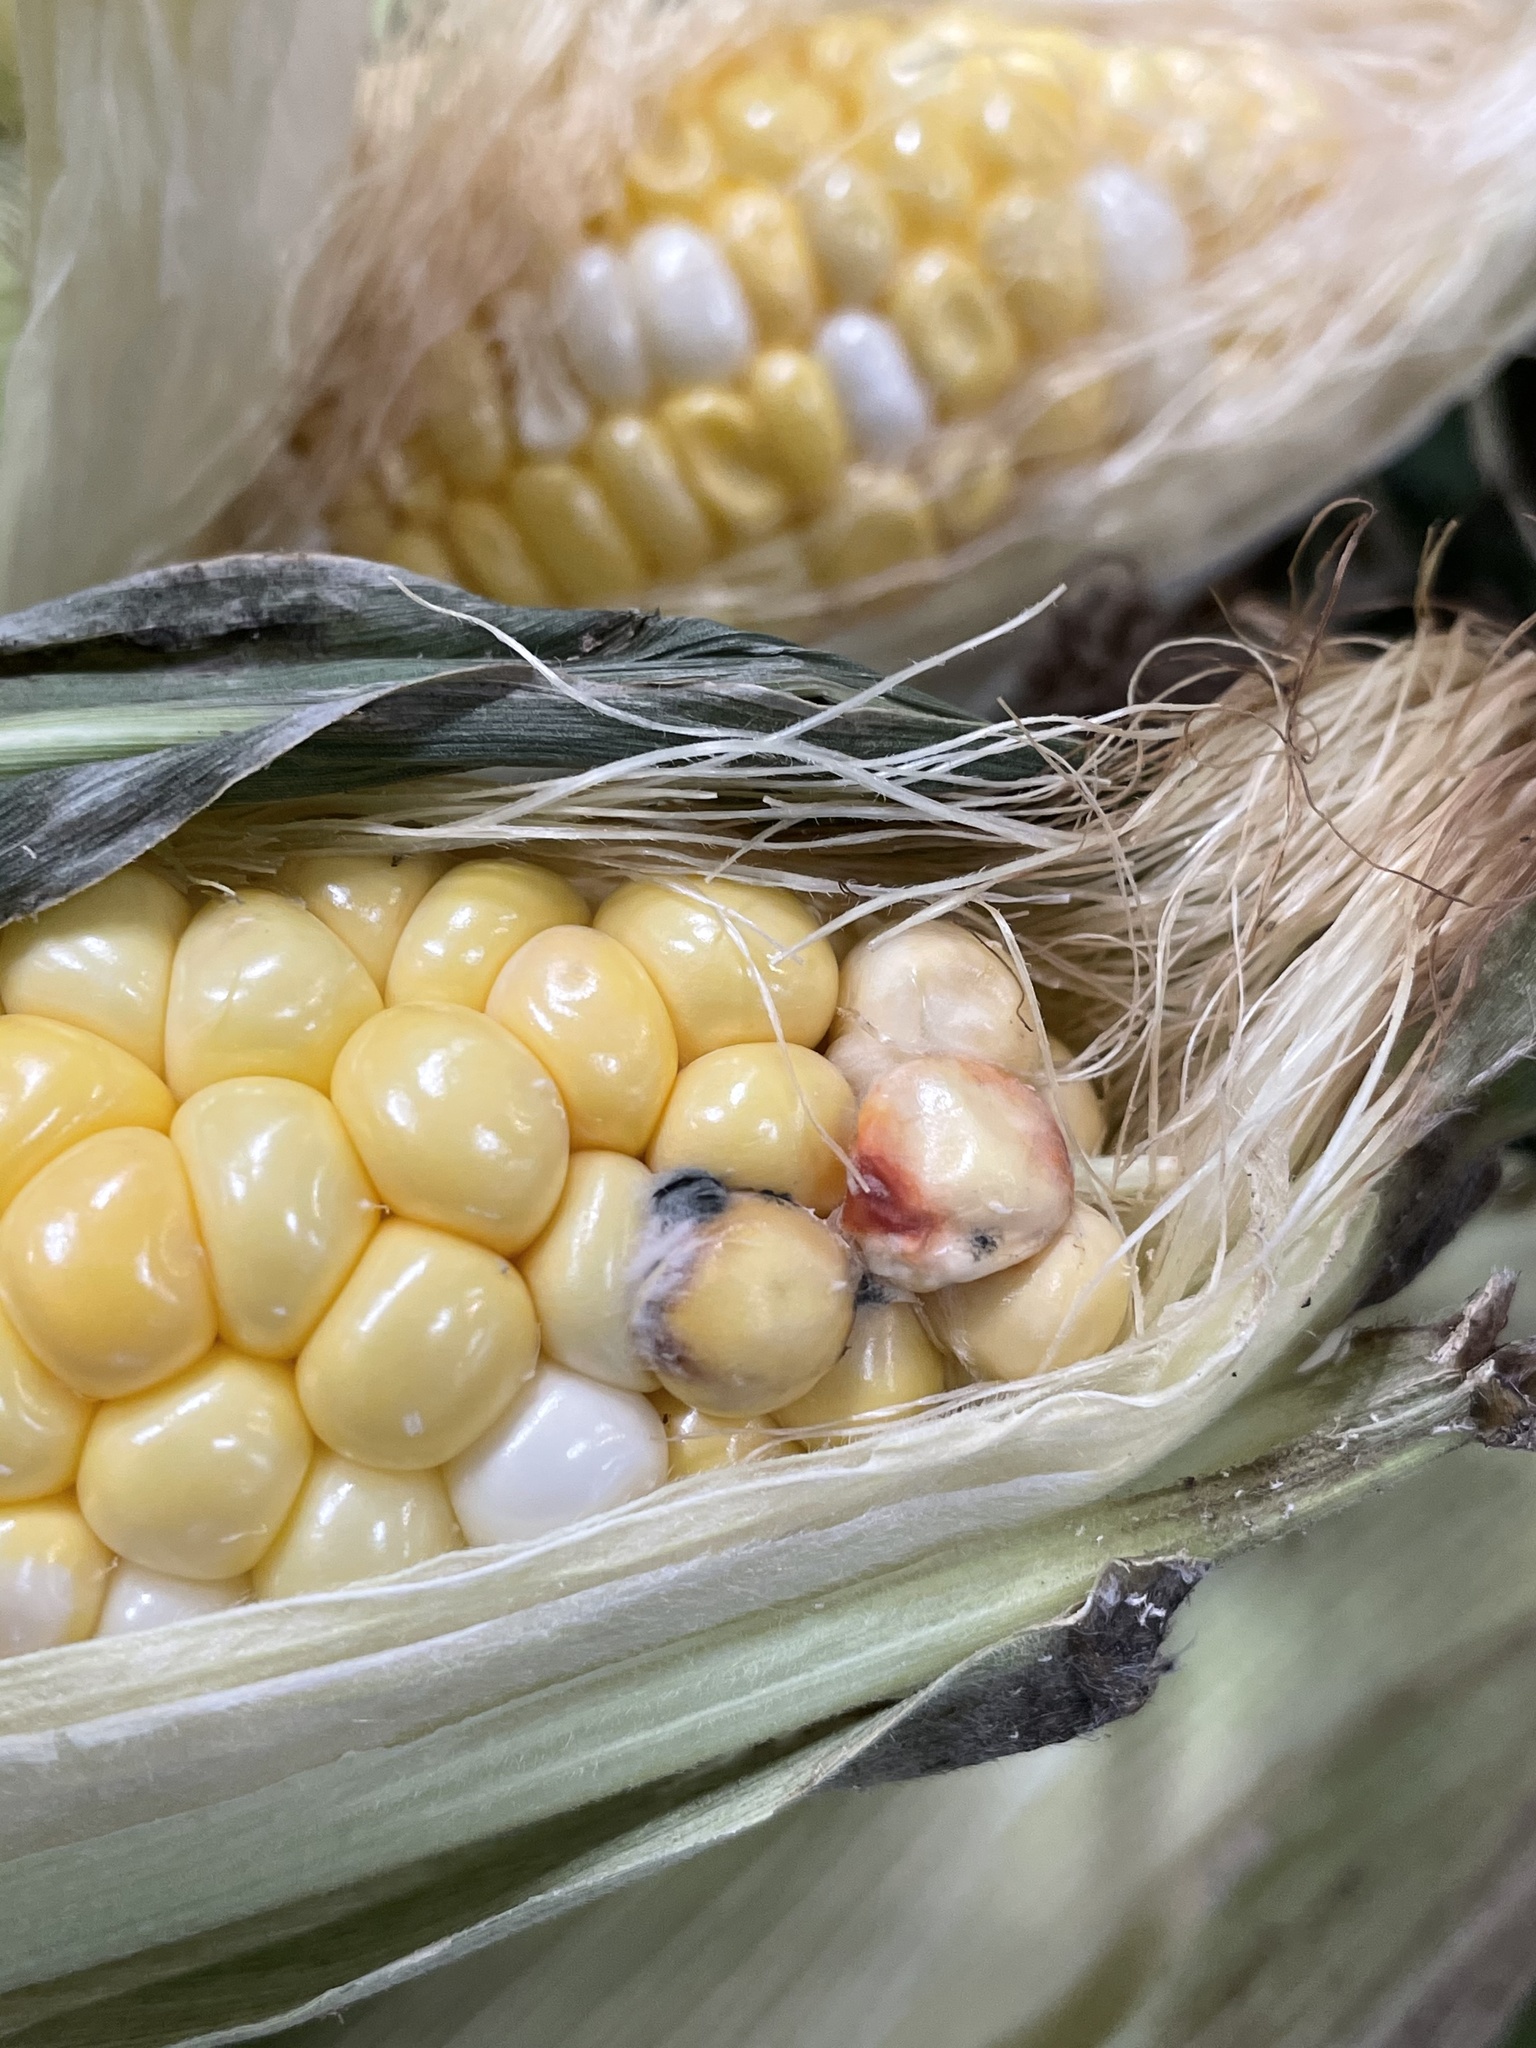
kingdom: Animalia
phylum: Arthropoda
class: Arachnida
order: Trombidiformes
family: Eriophyidae
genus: Aceria
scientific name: Aceria tulipae
